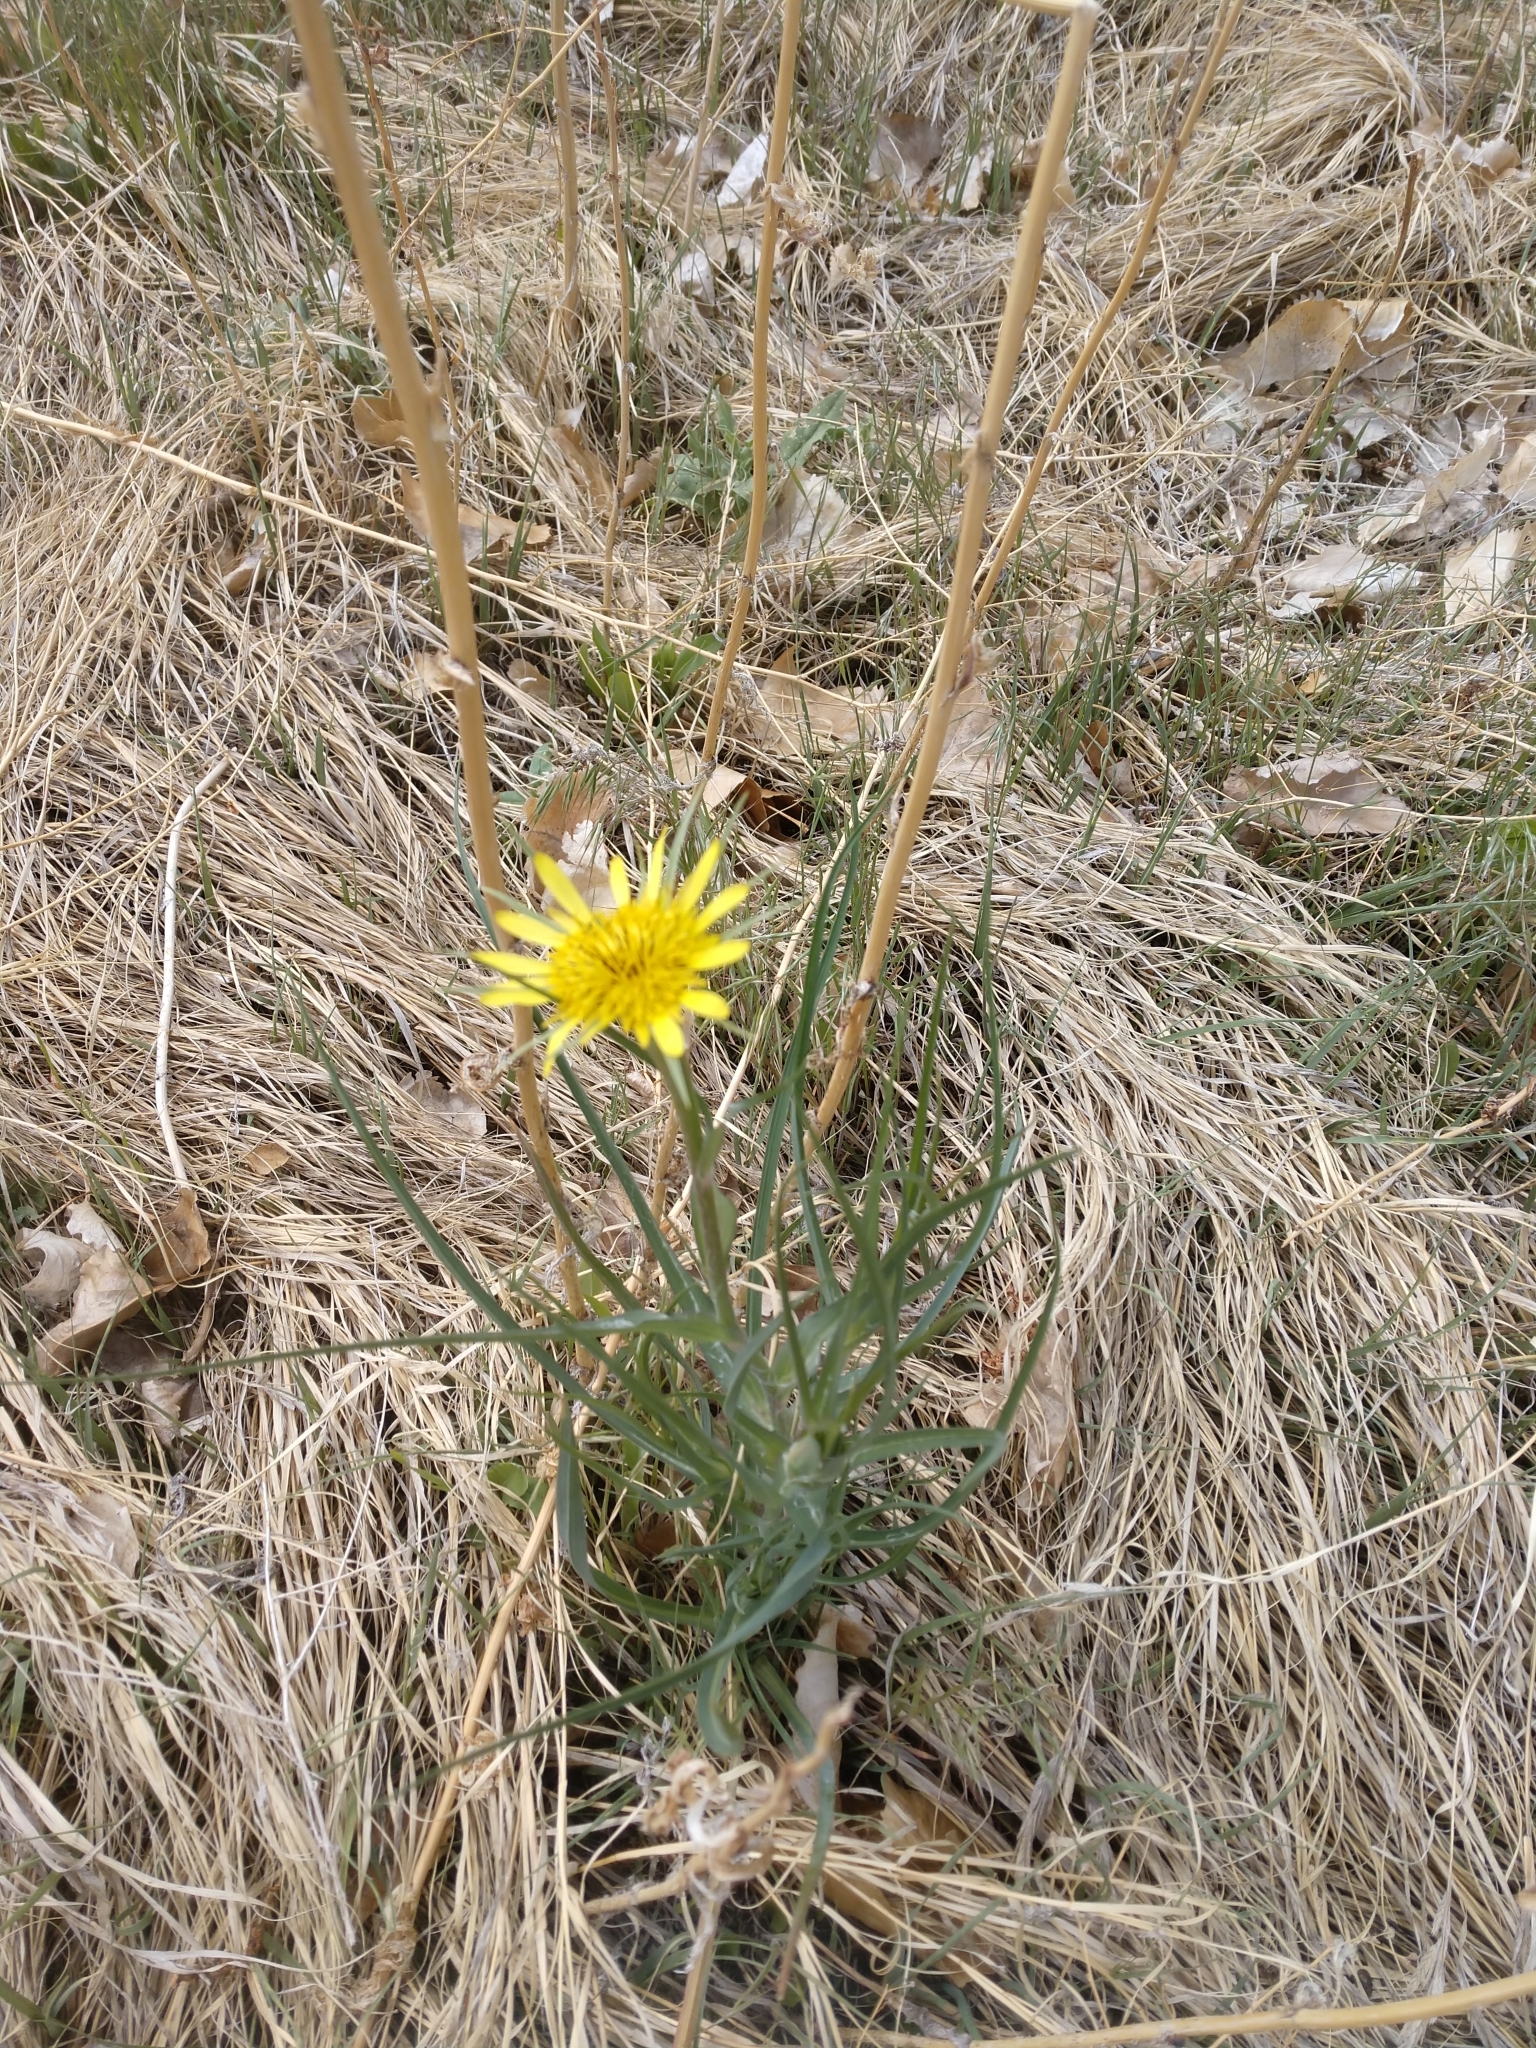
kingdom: Plantae
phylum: Tracheophyta
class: Magnoliopsida
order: Asterales
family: Asteraceae
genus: Tragopogon
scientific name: Tragopogon dubius
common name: Yellow salsify
